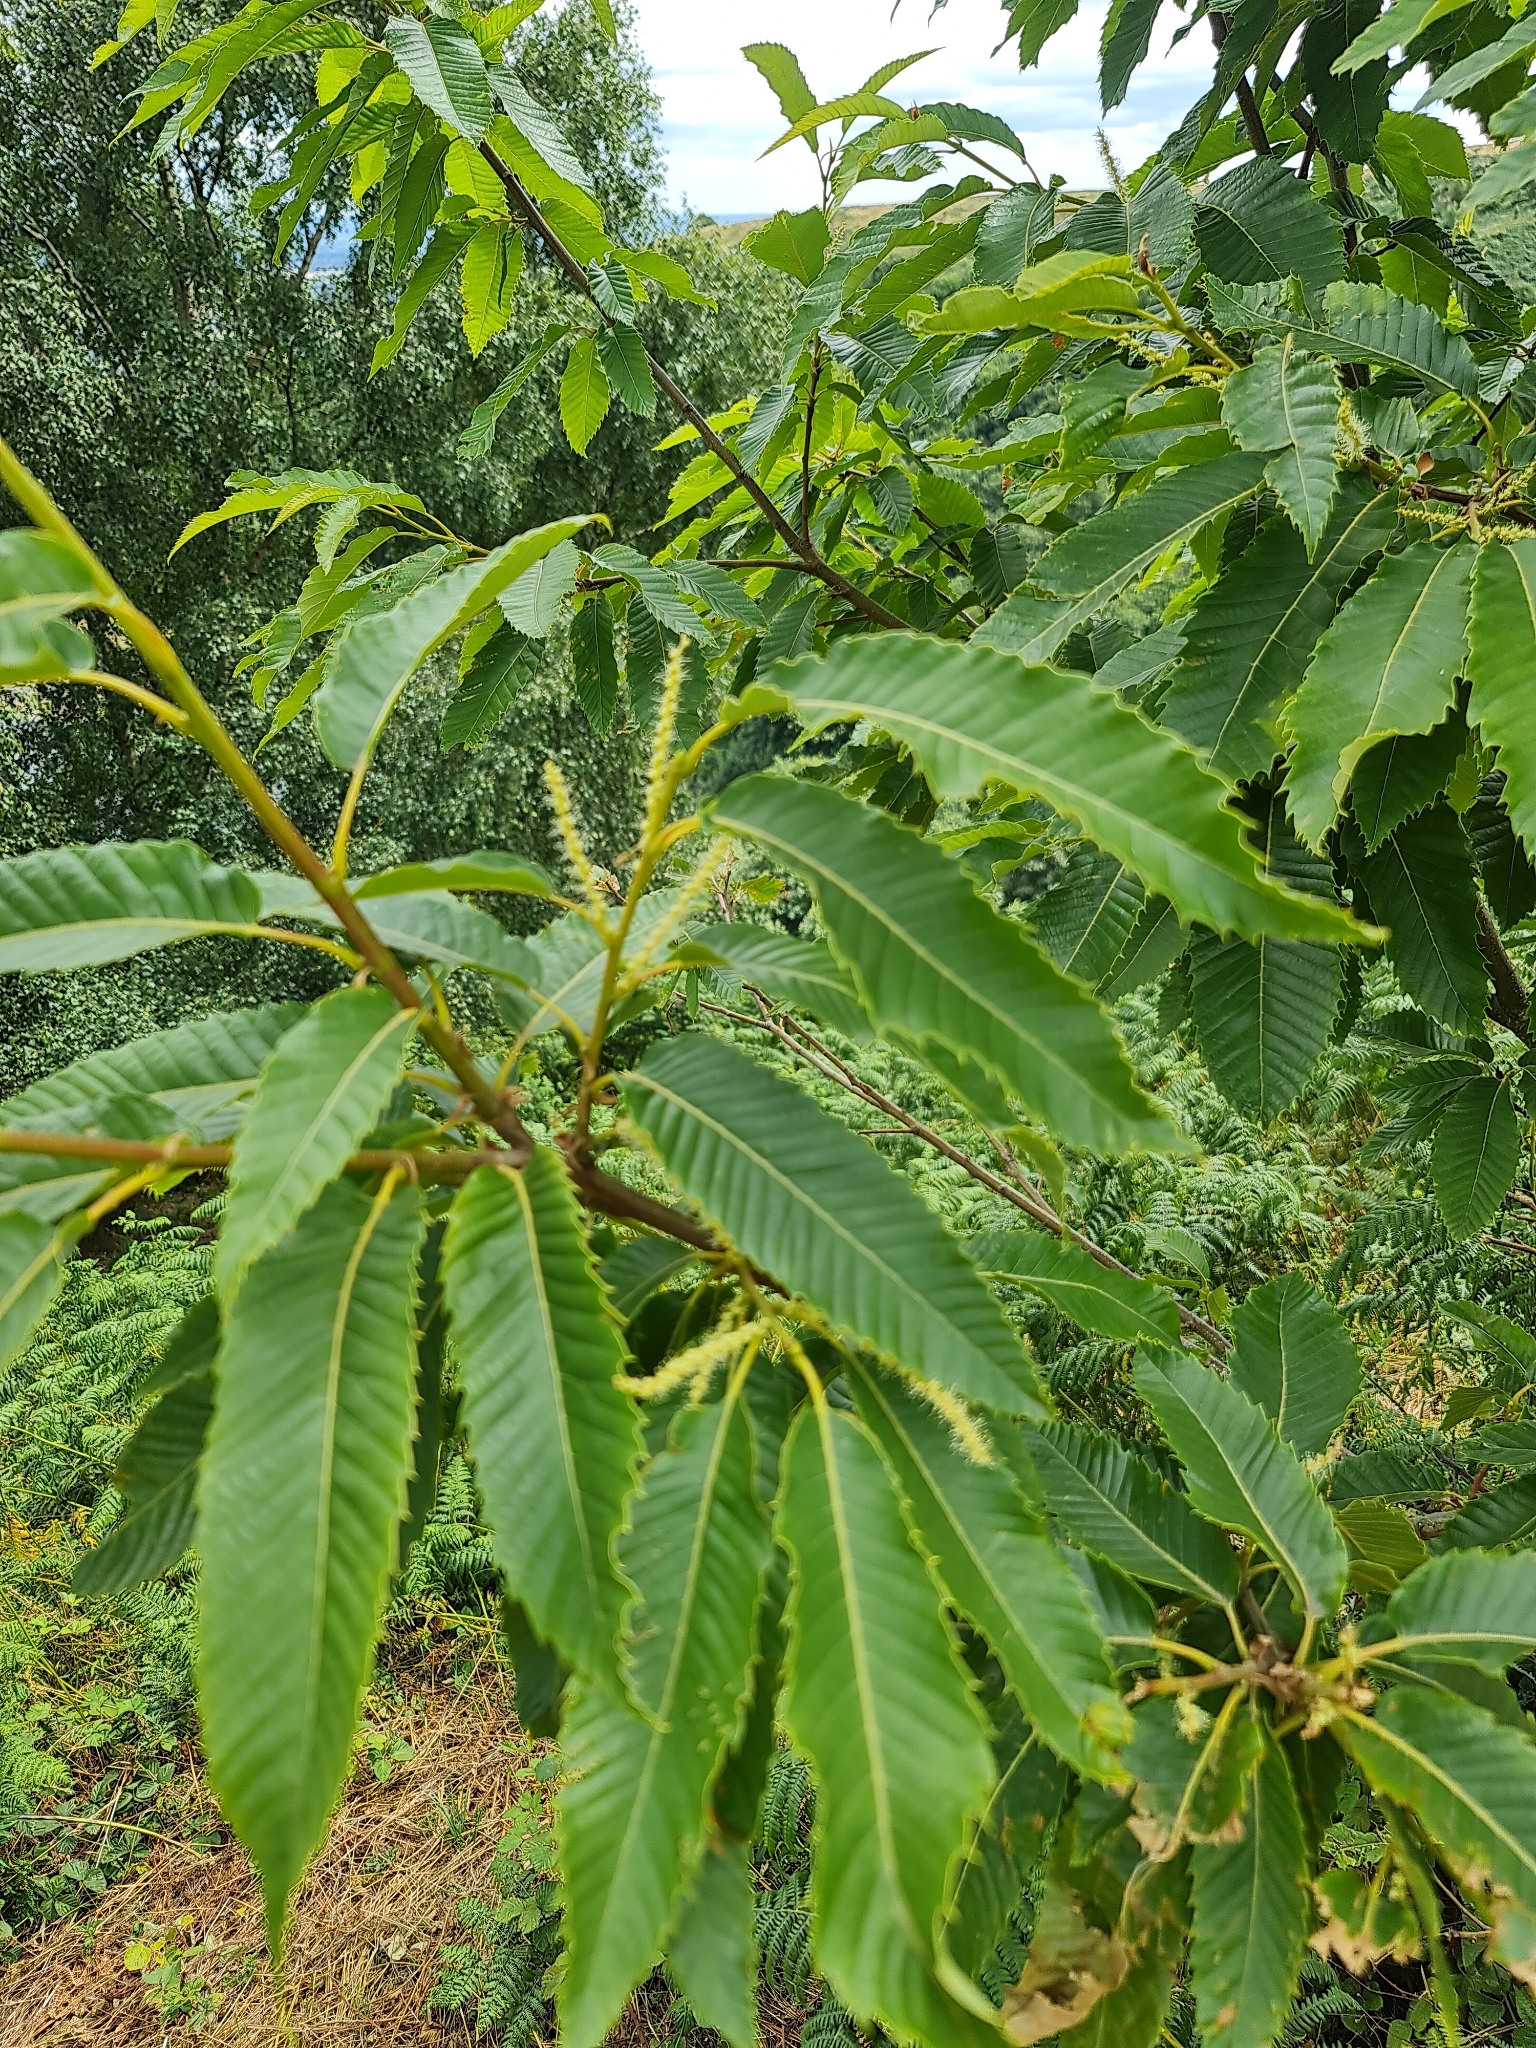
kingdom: Plantae
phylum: Tracheophyta
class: Magnoliopsida
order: Fagales
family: Fagaceae
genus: Castanea
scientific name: Castanea sativa
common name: Sweet chestnut
